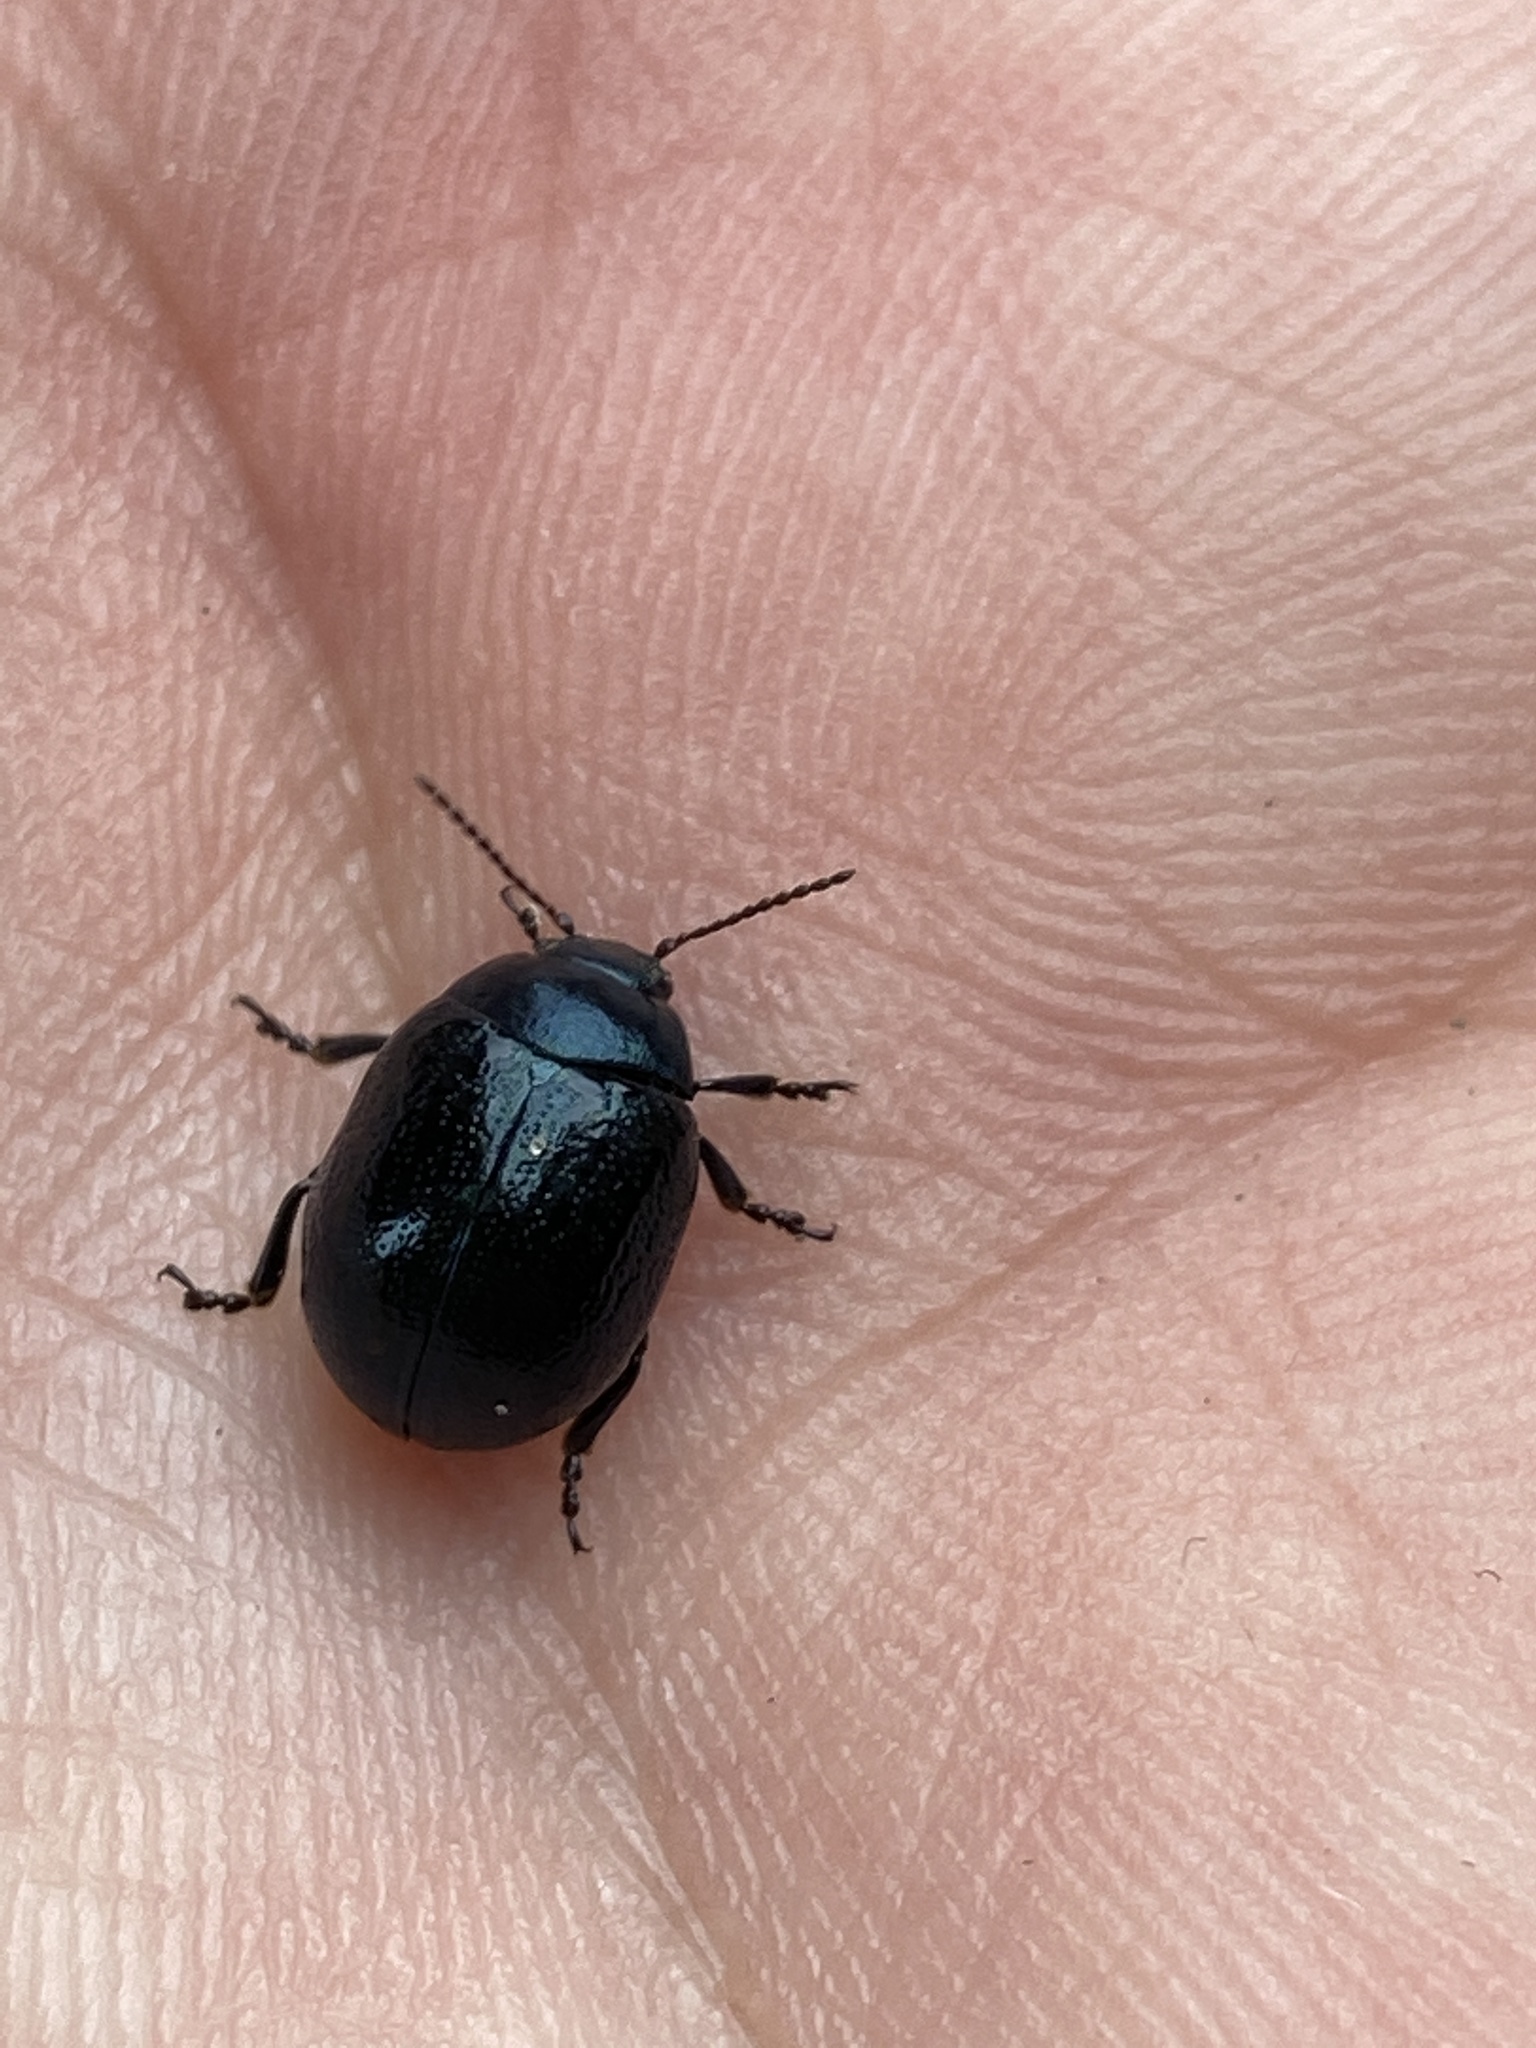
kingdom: Animalia
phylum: Arthropoda
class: Insecta
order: Coleoptera
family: Chrysomelidae
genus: Chrysolina
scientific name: Chrysolina haemoptera
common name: Plantain leaf beetle
